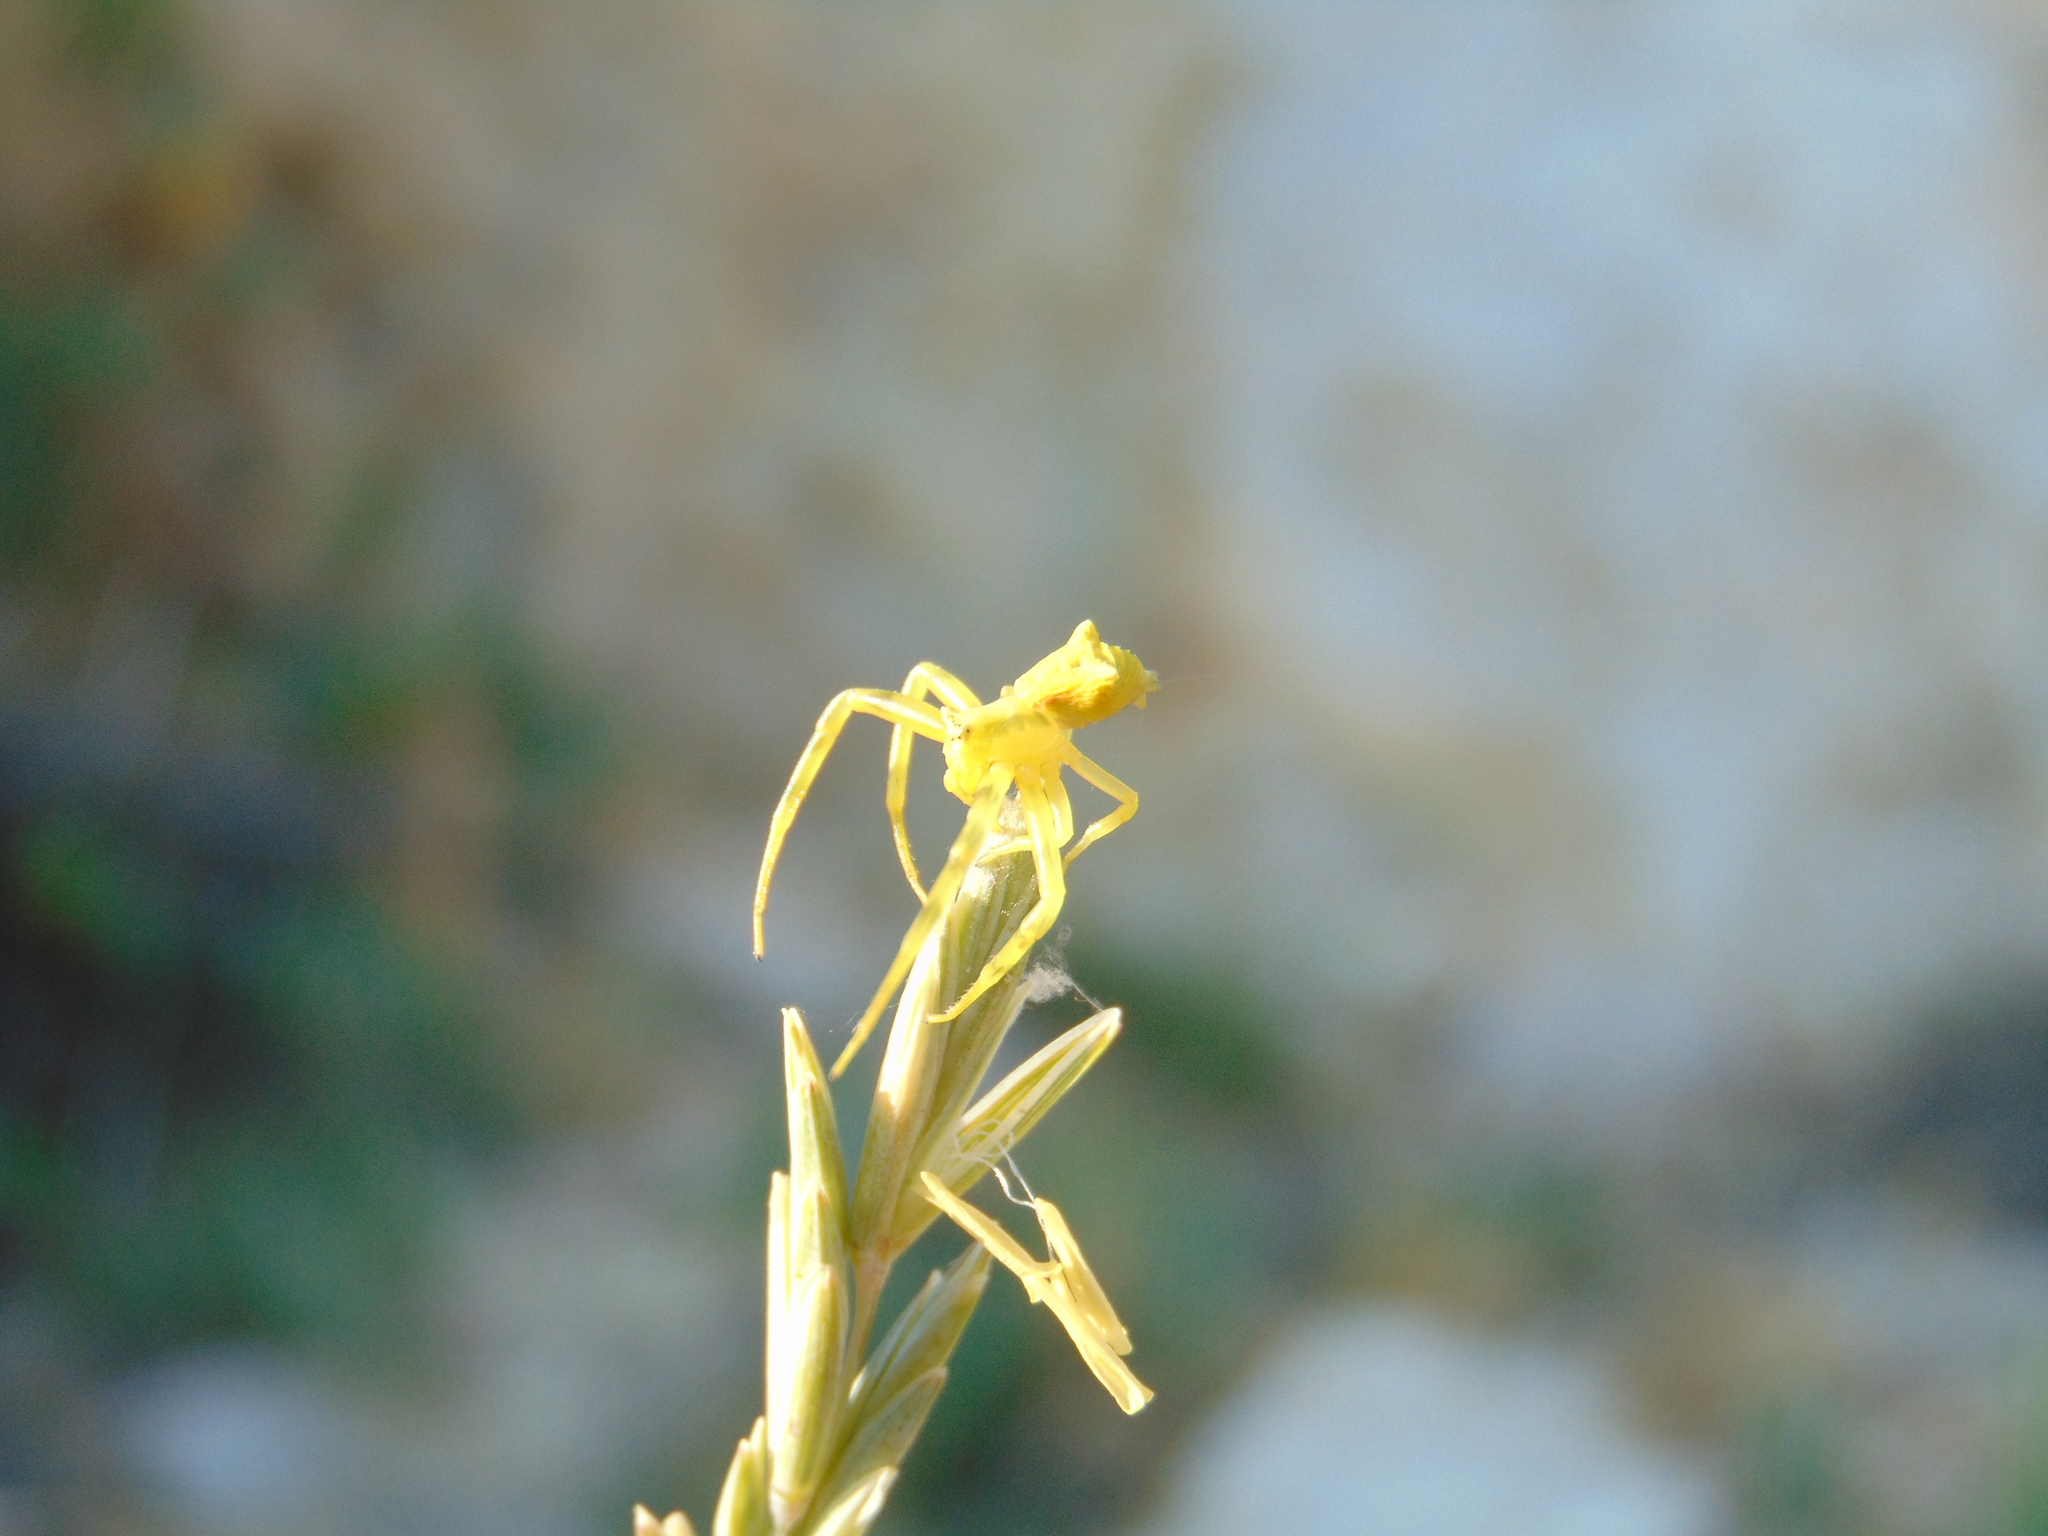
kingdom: Animalia
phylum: Arthropoda
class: Arachnida
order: Araneae
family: Thomisidae
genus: Thomisus
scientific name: Thomisus onustus
